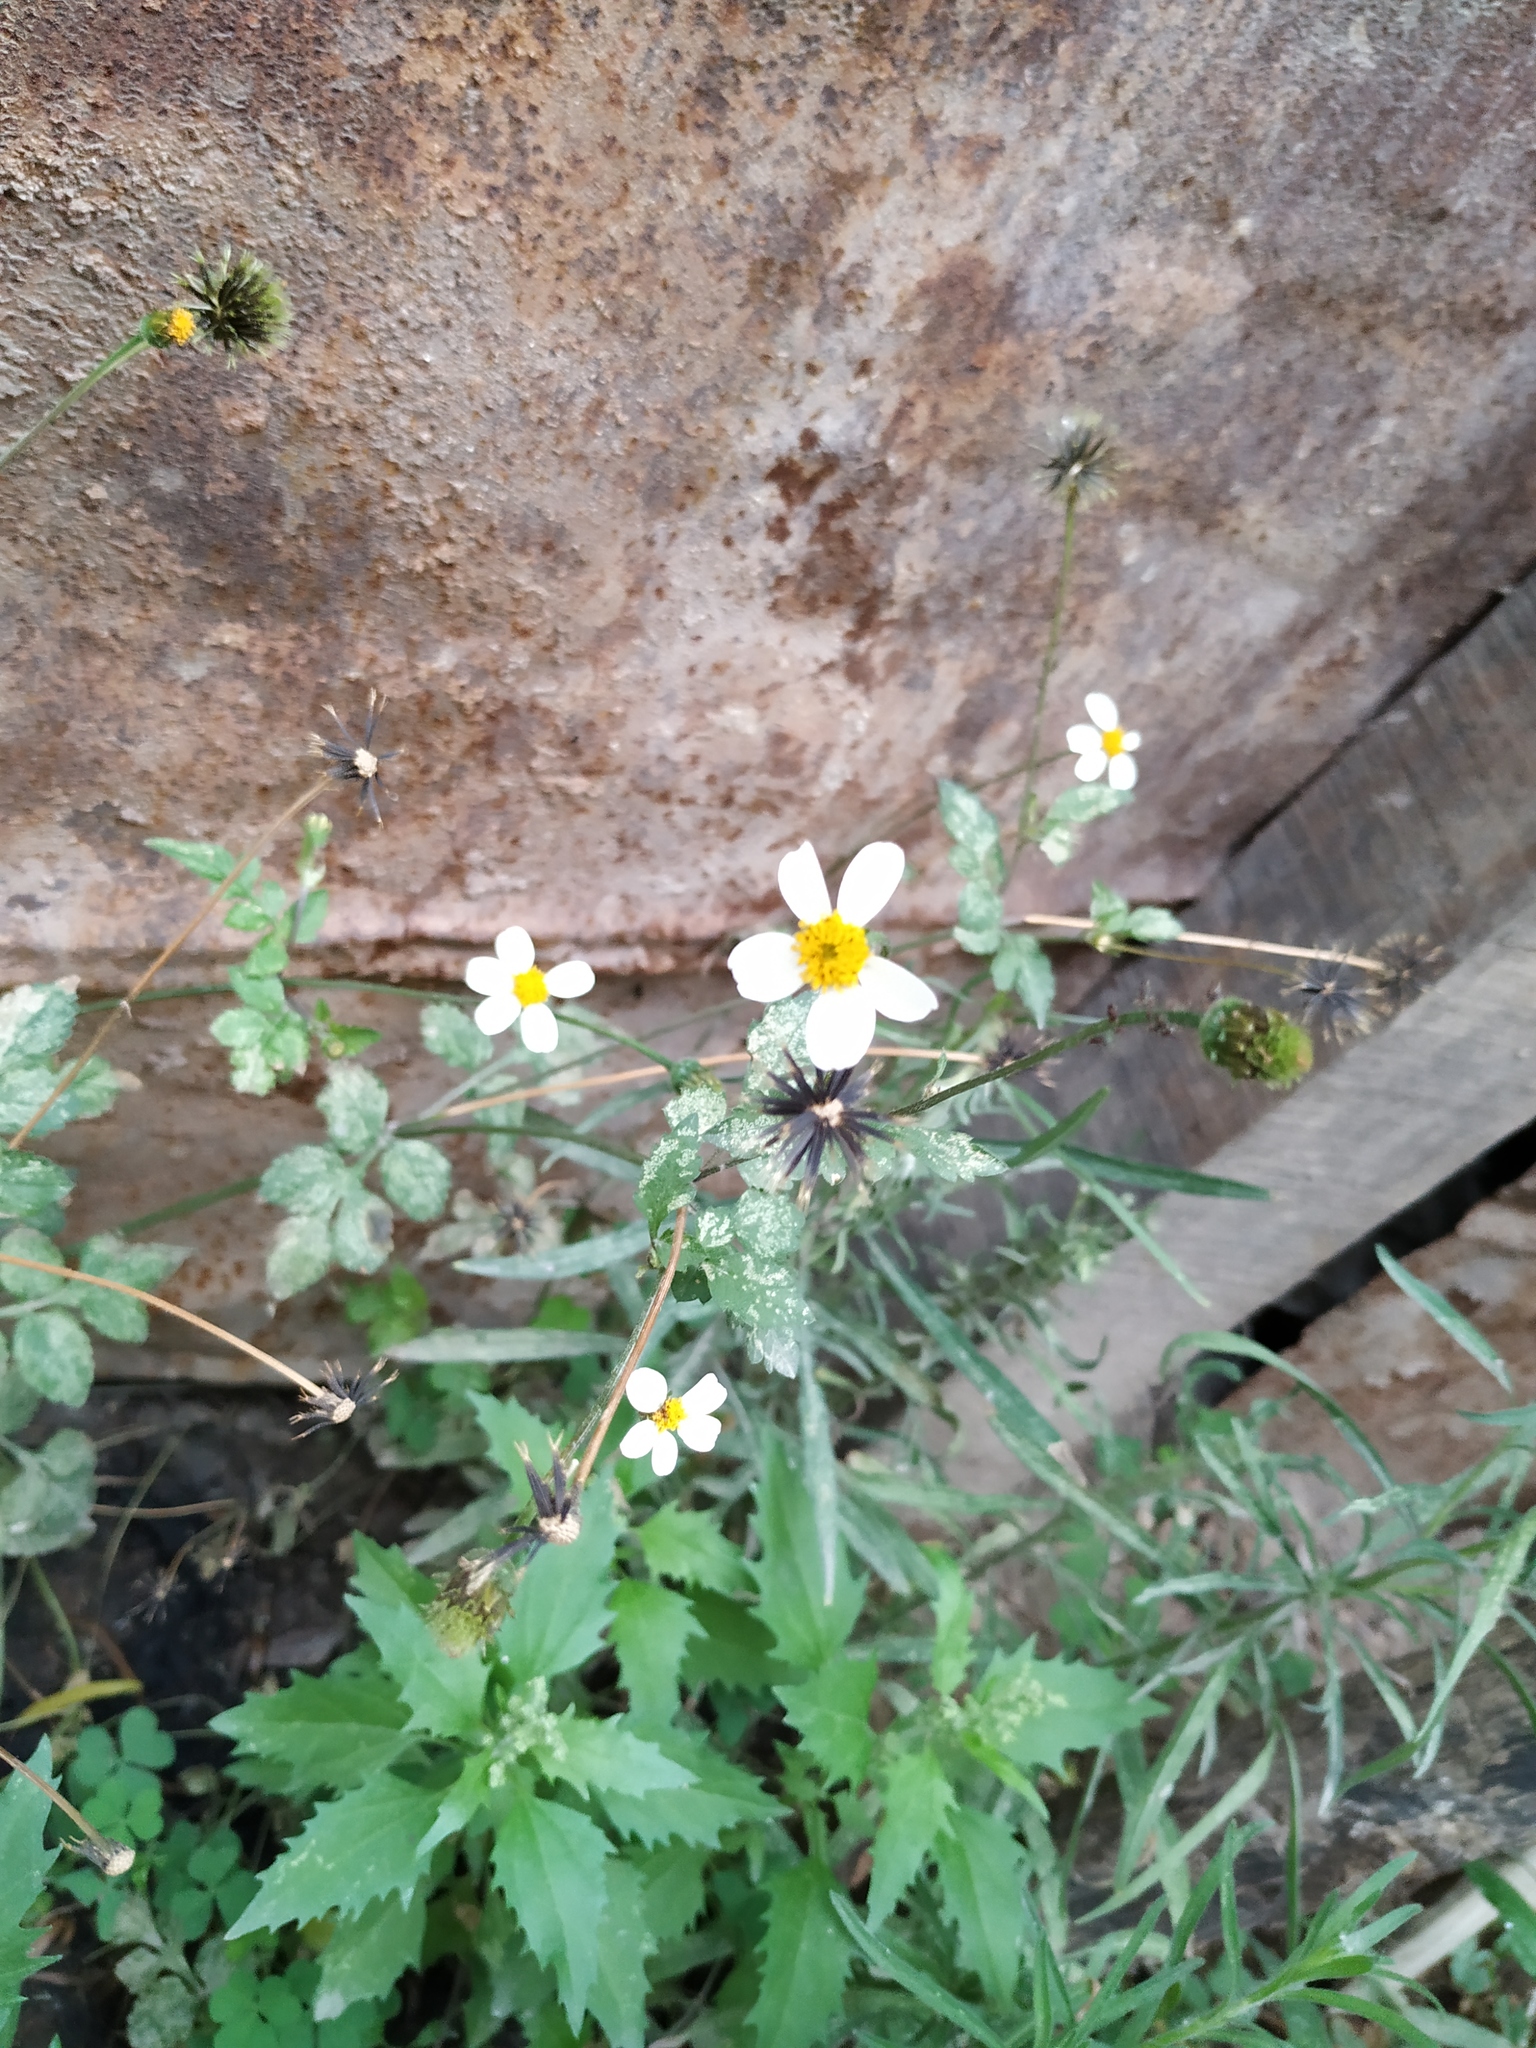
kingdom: Plantae
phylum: Tracheophyta
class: Magnoliopsida
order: Asterales
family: Asteraceae
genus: Bidens
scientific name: Bidens alba
